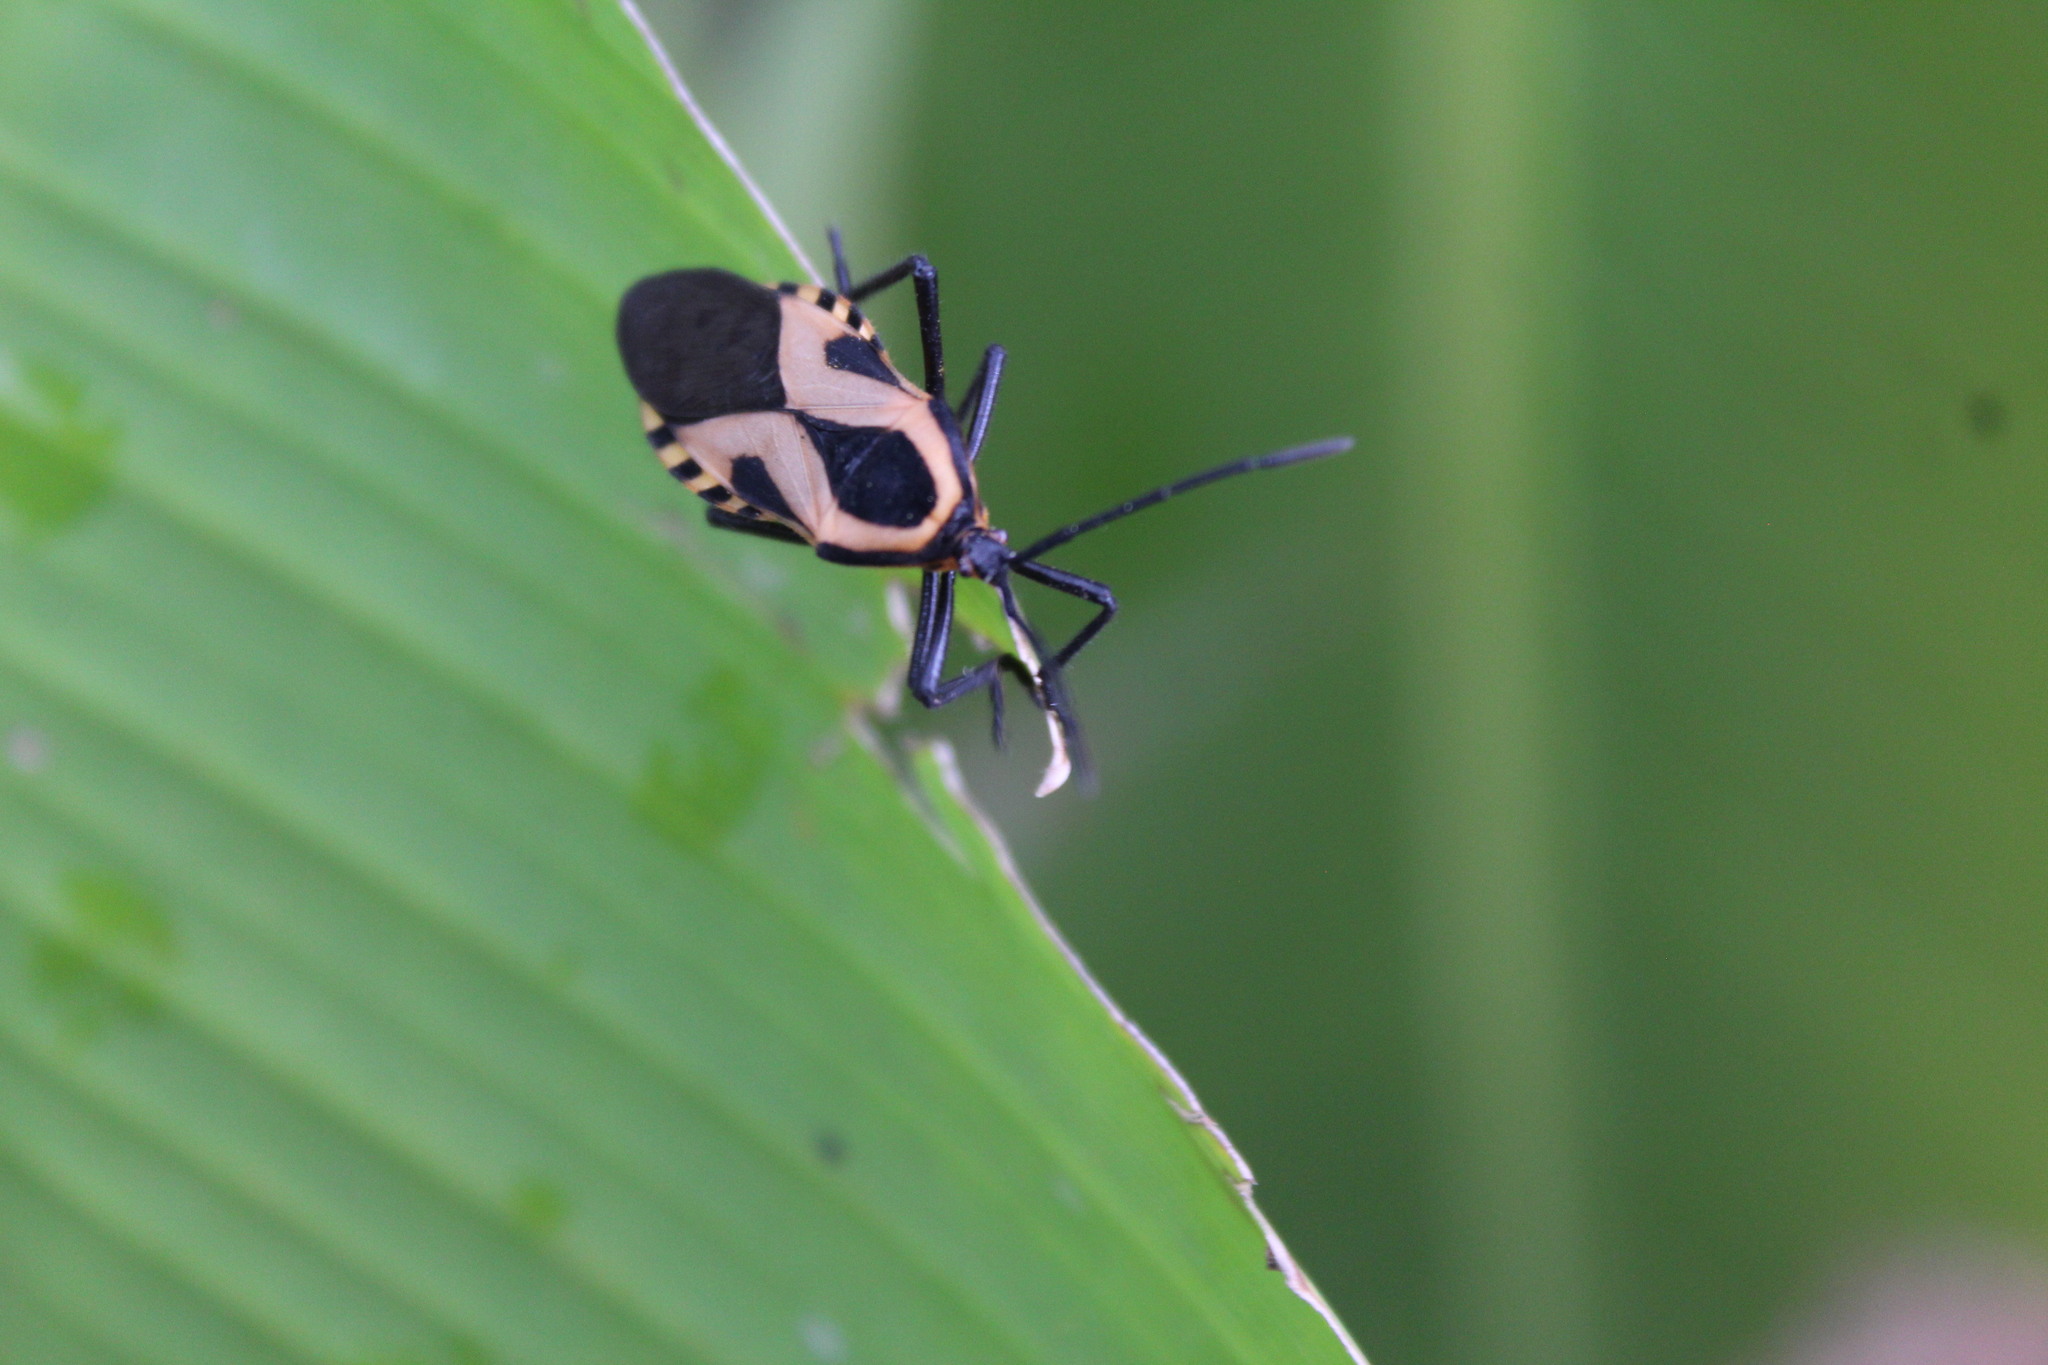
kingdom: Animalia
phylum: Arthropoda
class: Insecta
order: Hemiptera
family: Coreidae
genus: Sephina
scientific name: Sephina vinula
